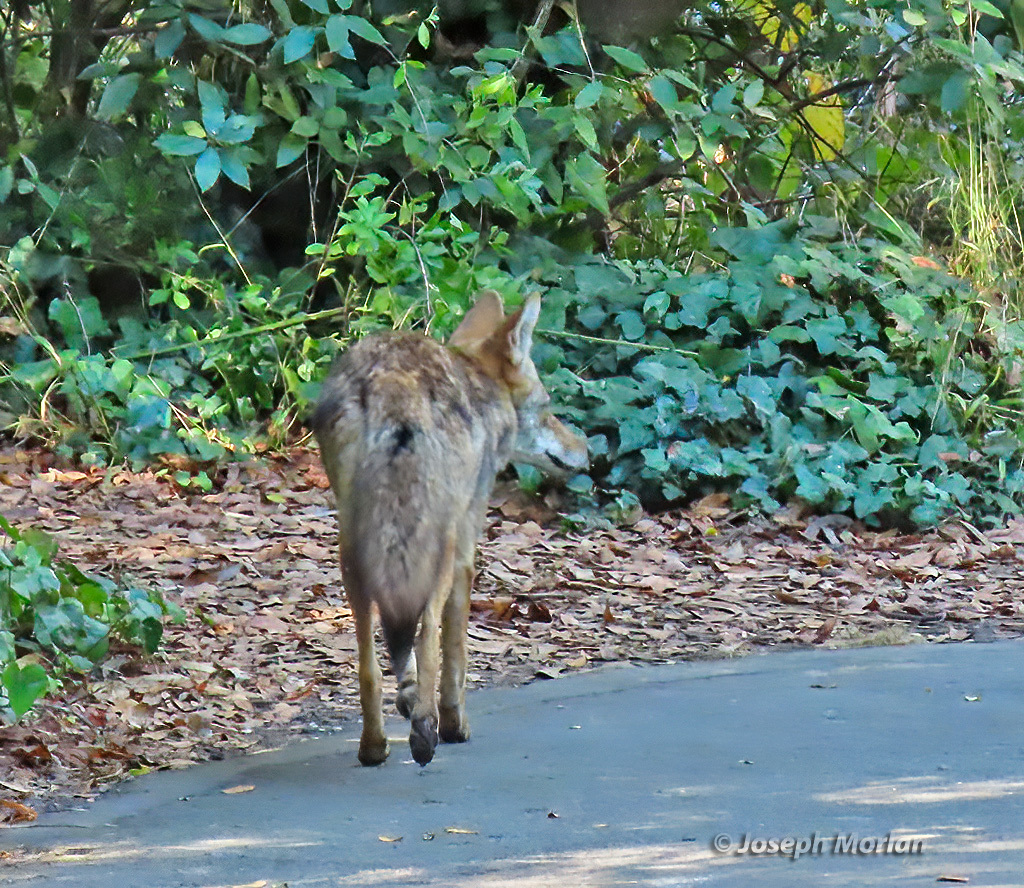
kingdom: Animalia
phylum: Chordata
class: Mammalia
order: Carnivora
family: Canidae
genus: Canis
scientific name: Canis latrans
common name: Coyote
